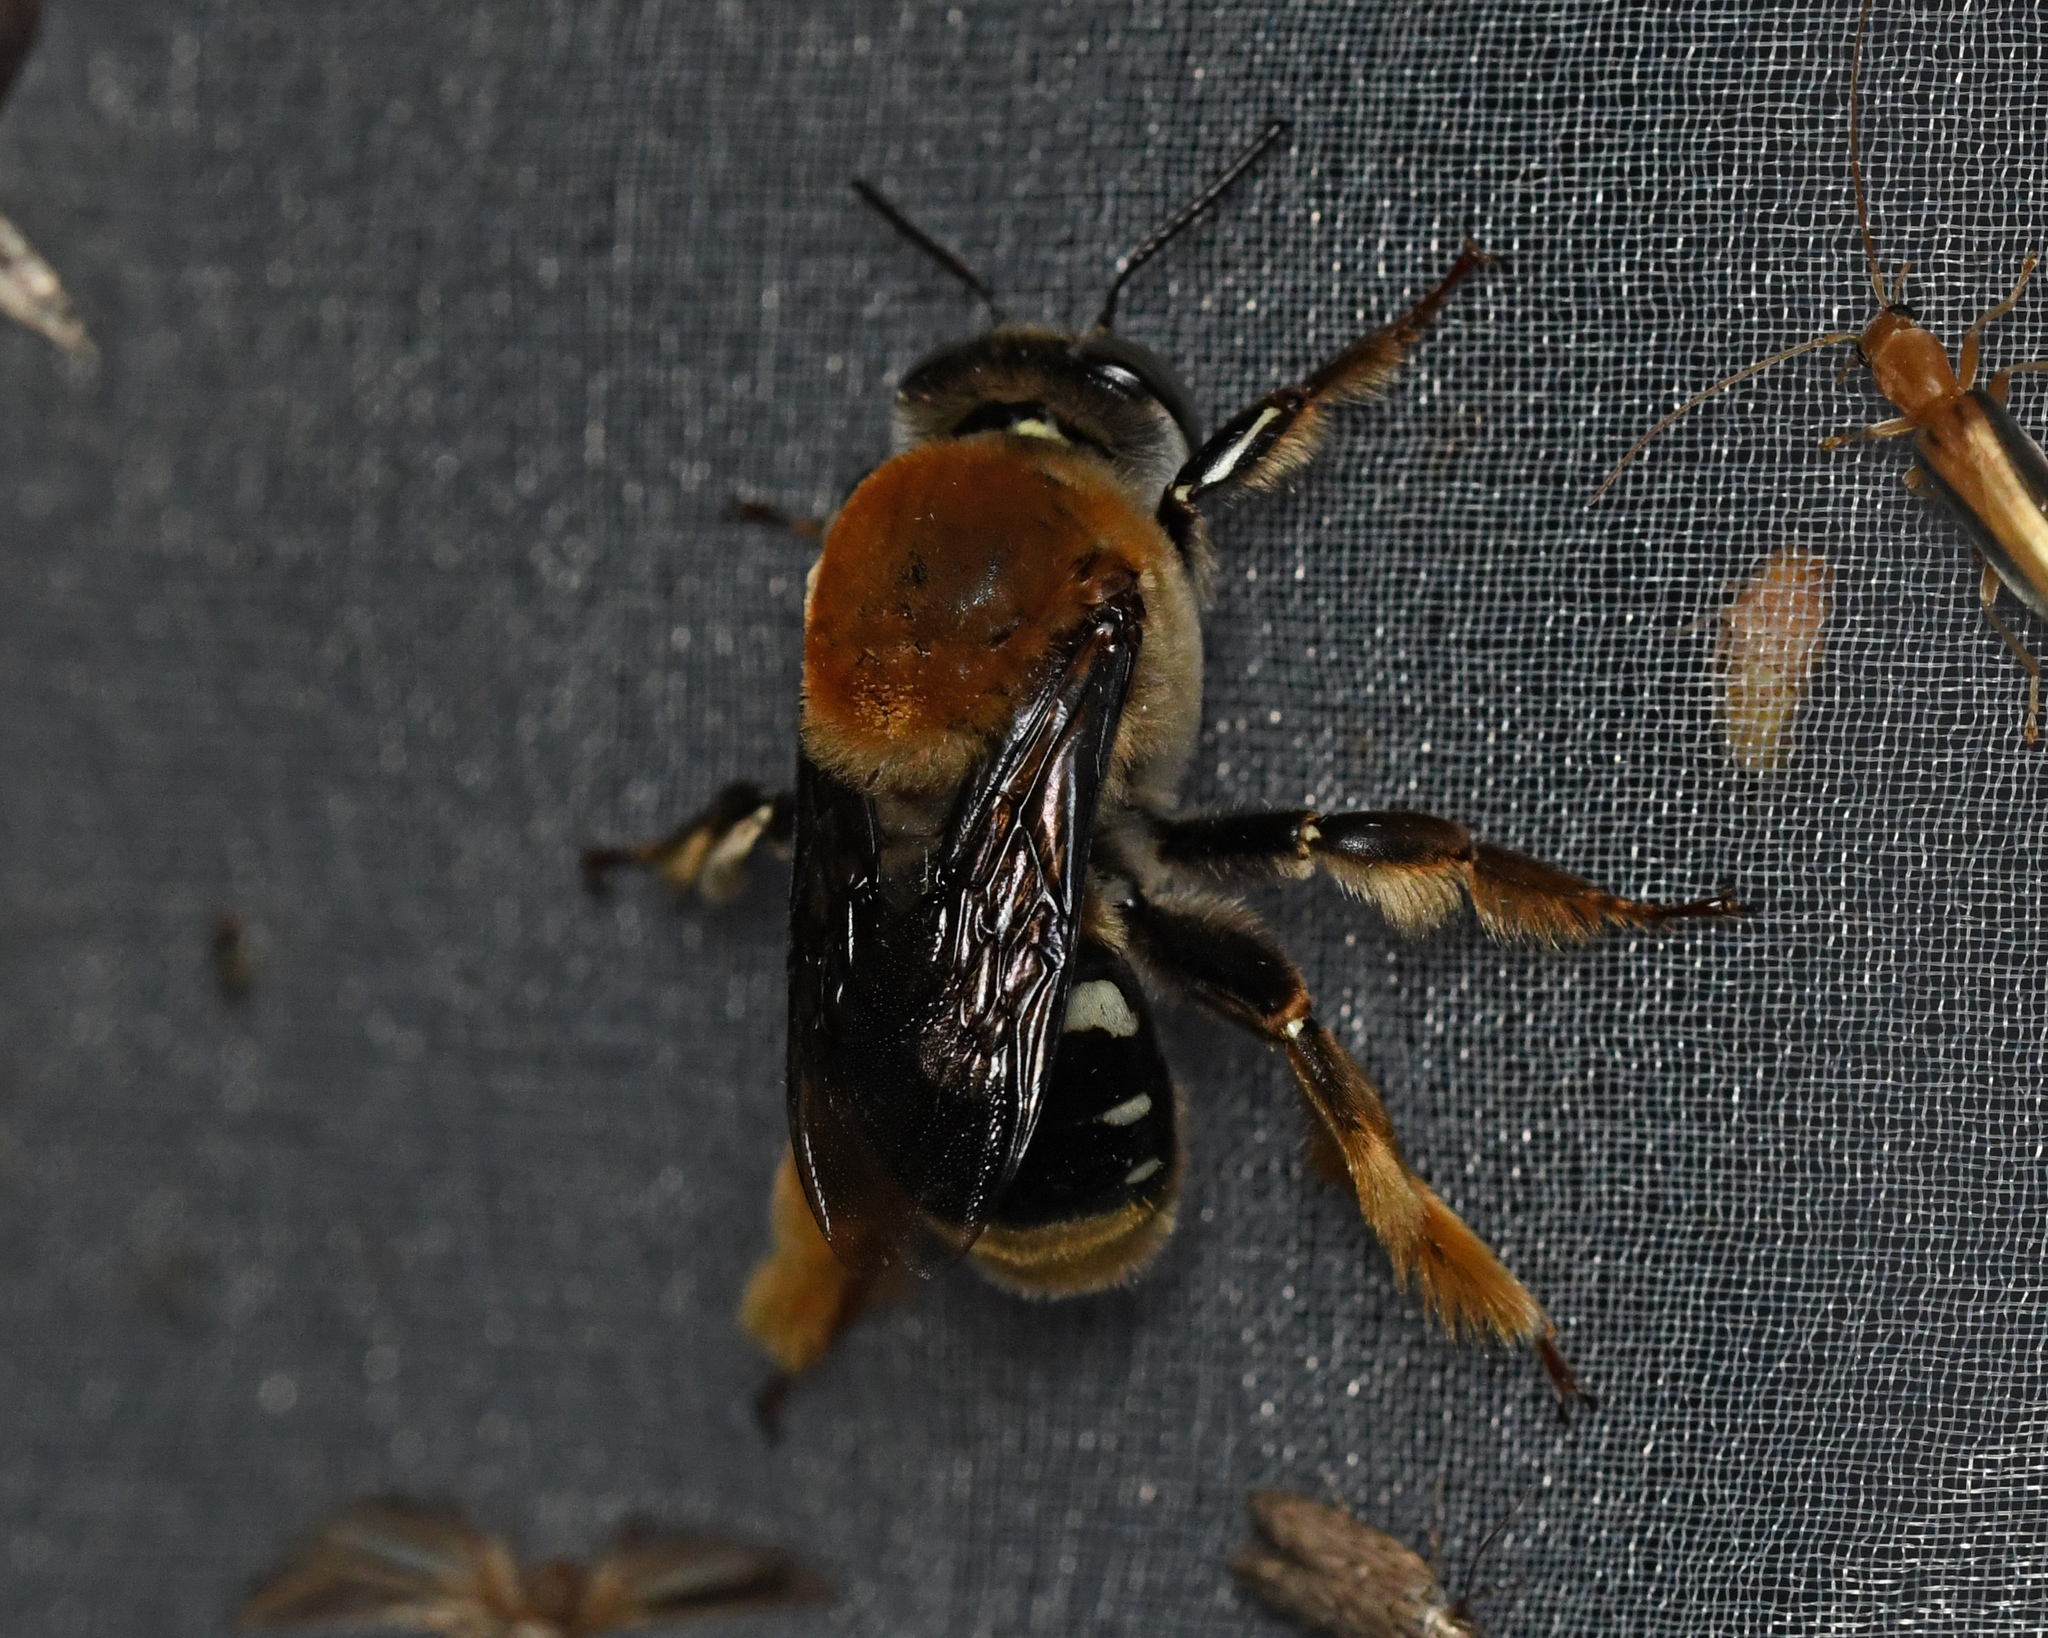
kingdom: Animalia
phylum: Arthropoda
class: Insecta
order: Hymenoptera
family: Apidae
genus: Centris
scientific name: Centris decolorata
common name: Crazy beach bee
